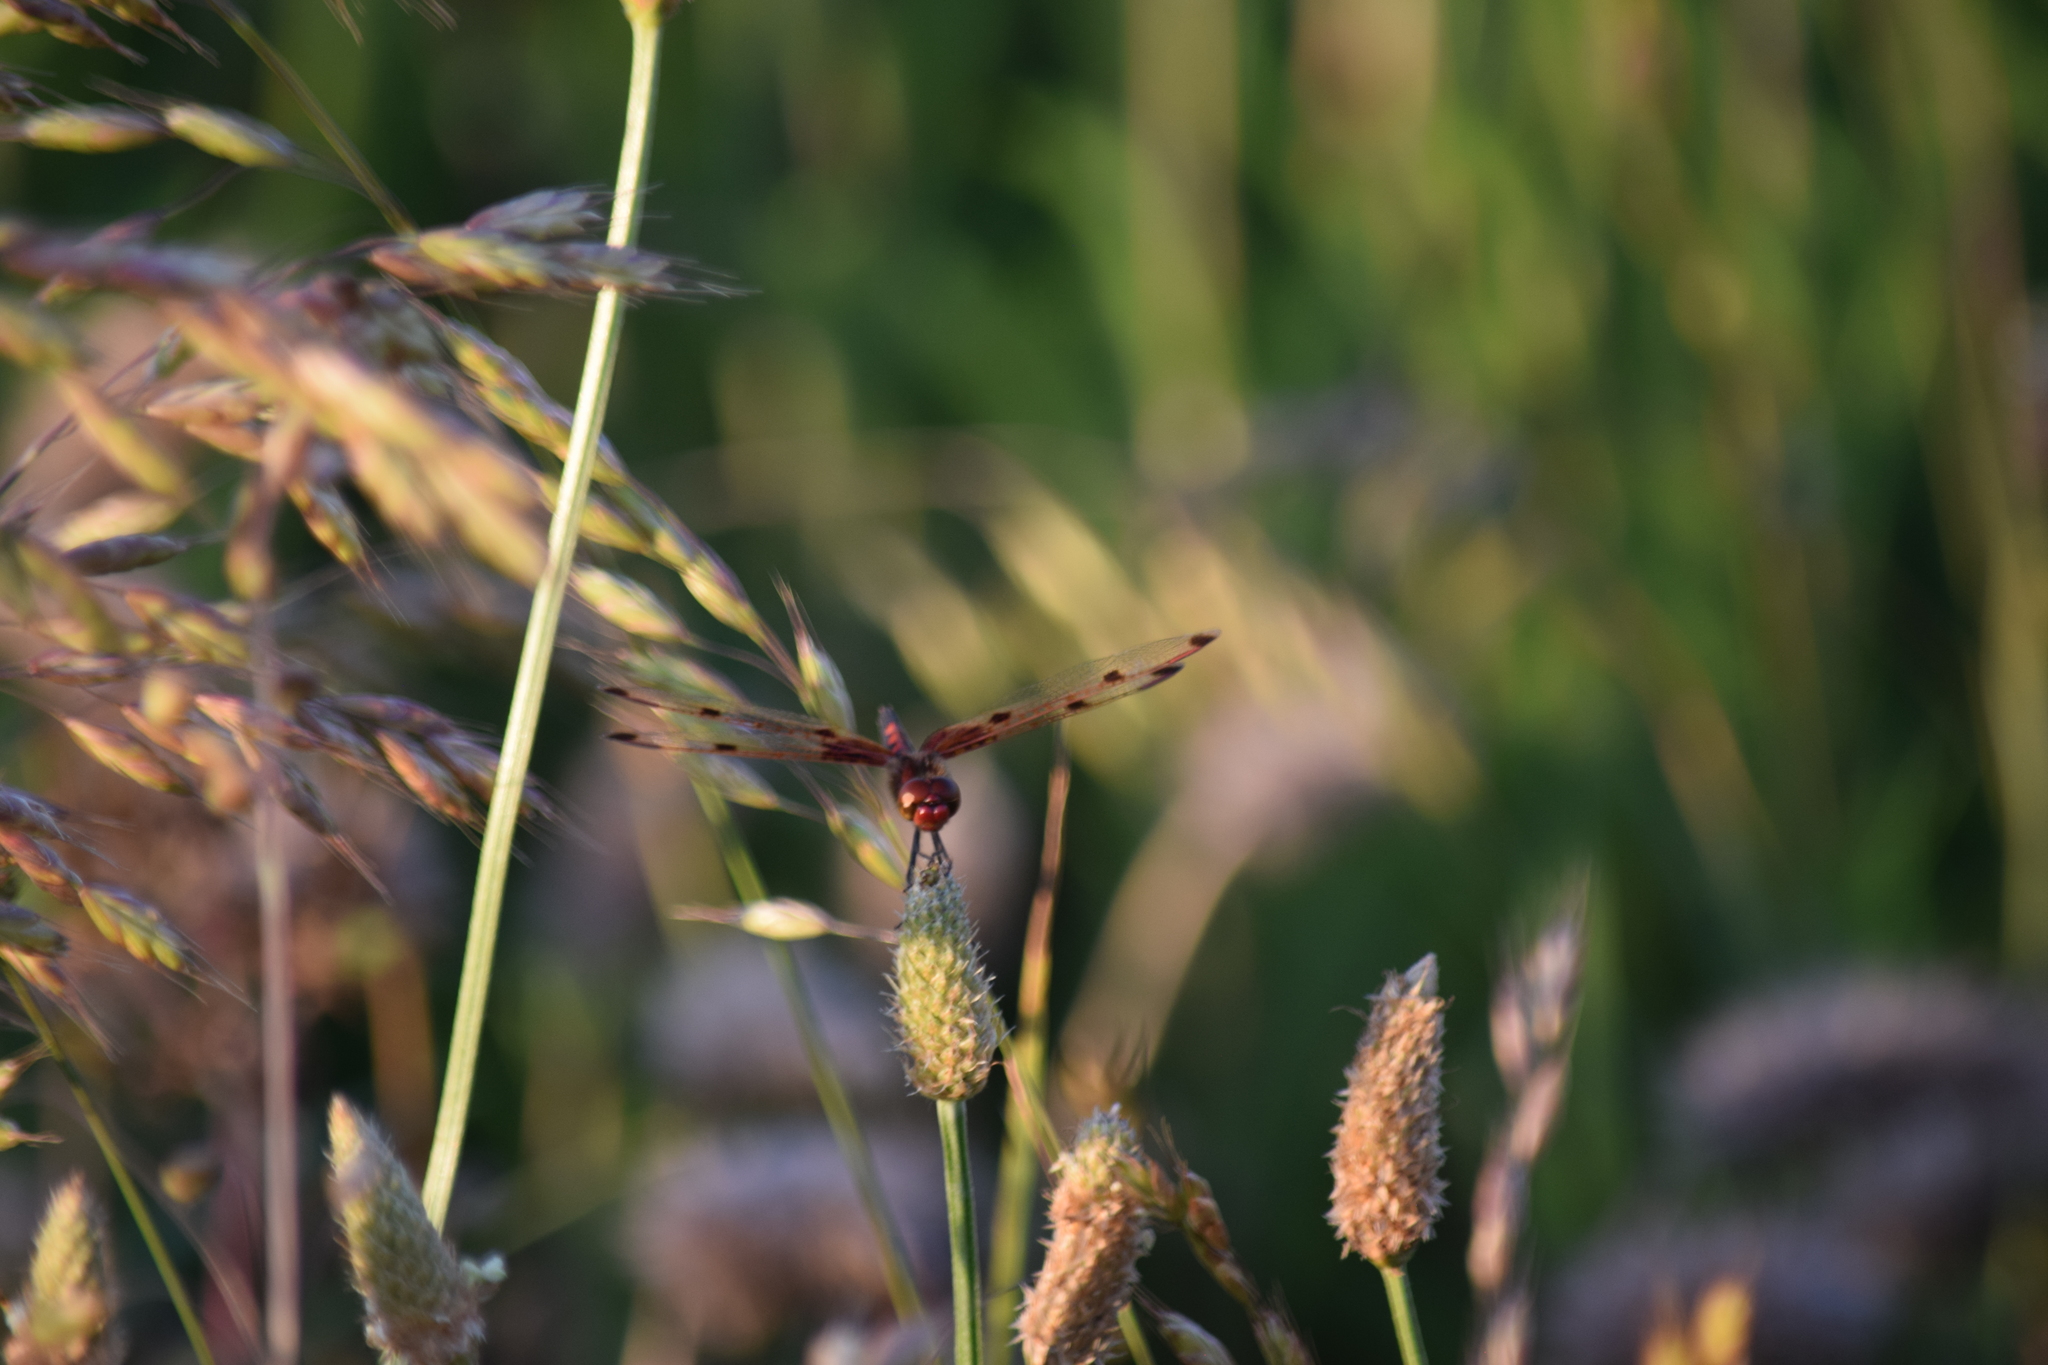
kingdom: Animalia
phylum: Arthropoda
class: Insecta
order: Odonata
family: Libellulidae
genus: Celithemis
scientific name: Celithemis elisa
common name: Calico pennant
